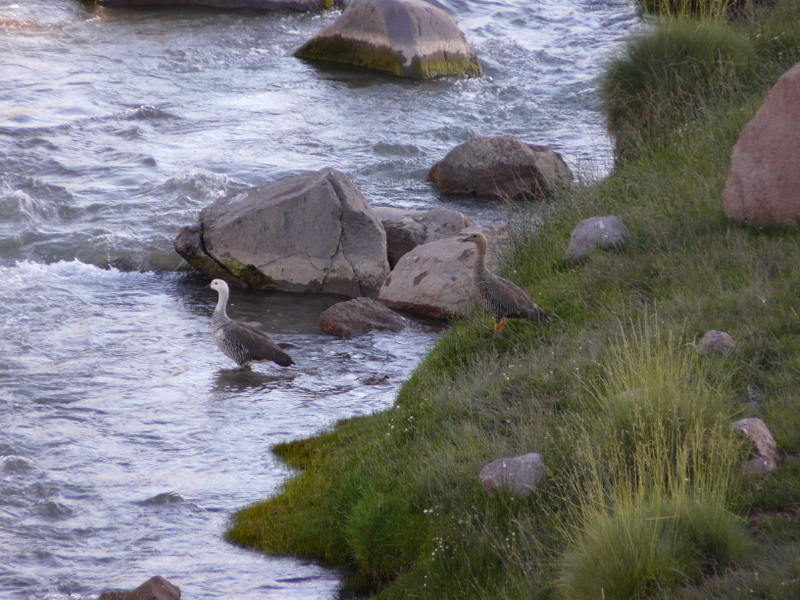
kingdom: Animalia
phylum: Chordata
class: Aves
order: Anseriformes
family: Anatidae
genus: Chloephaga
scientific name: Chloephaga picta
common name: Upland goose
